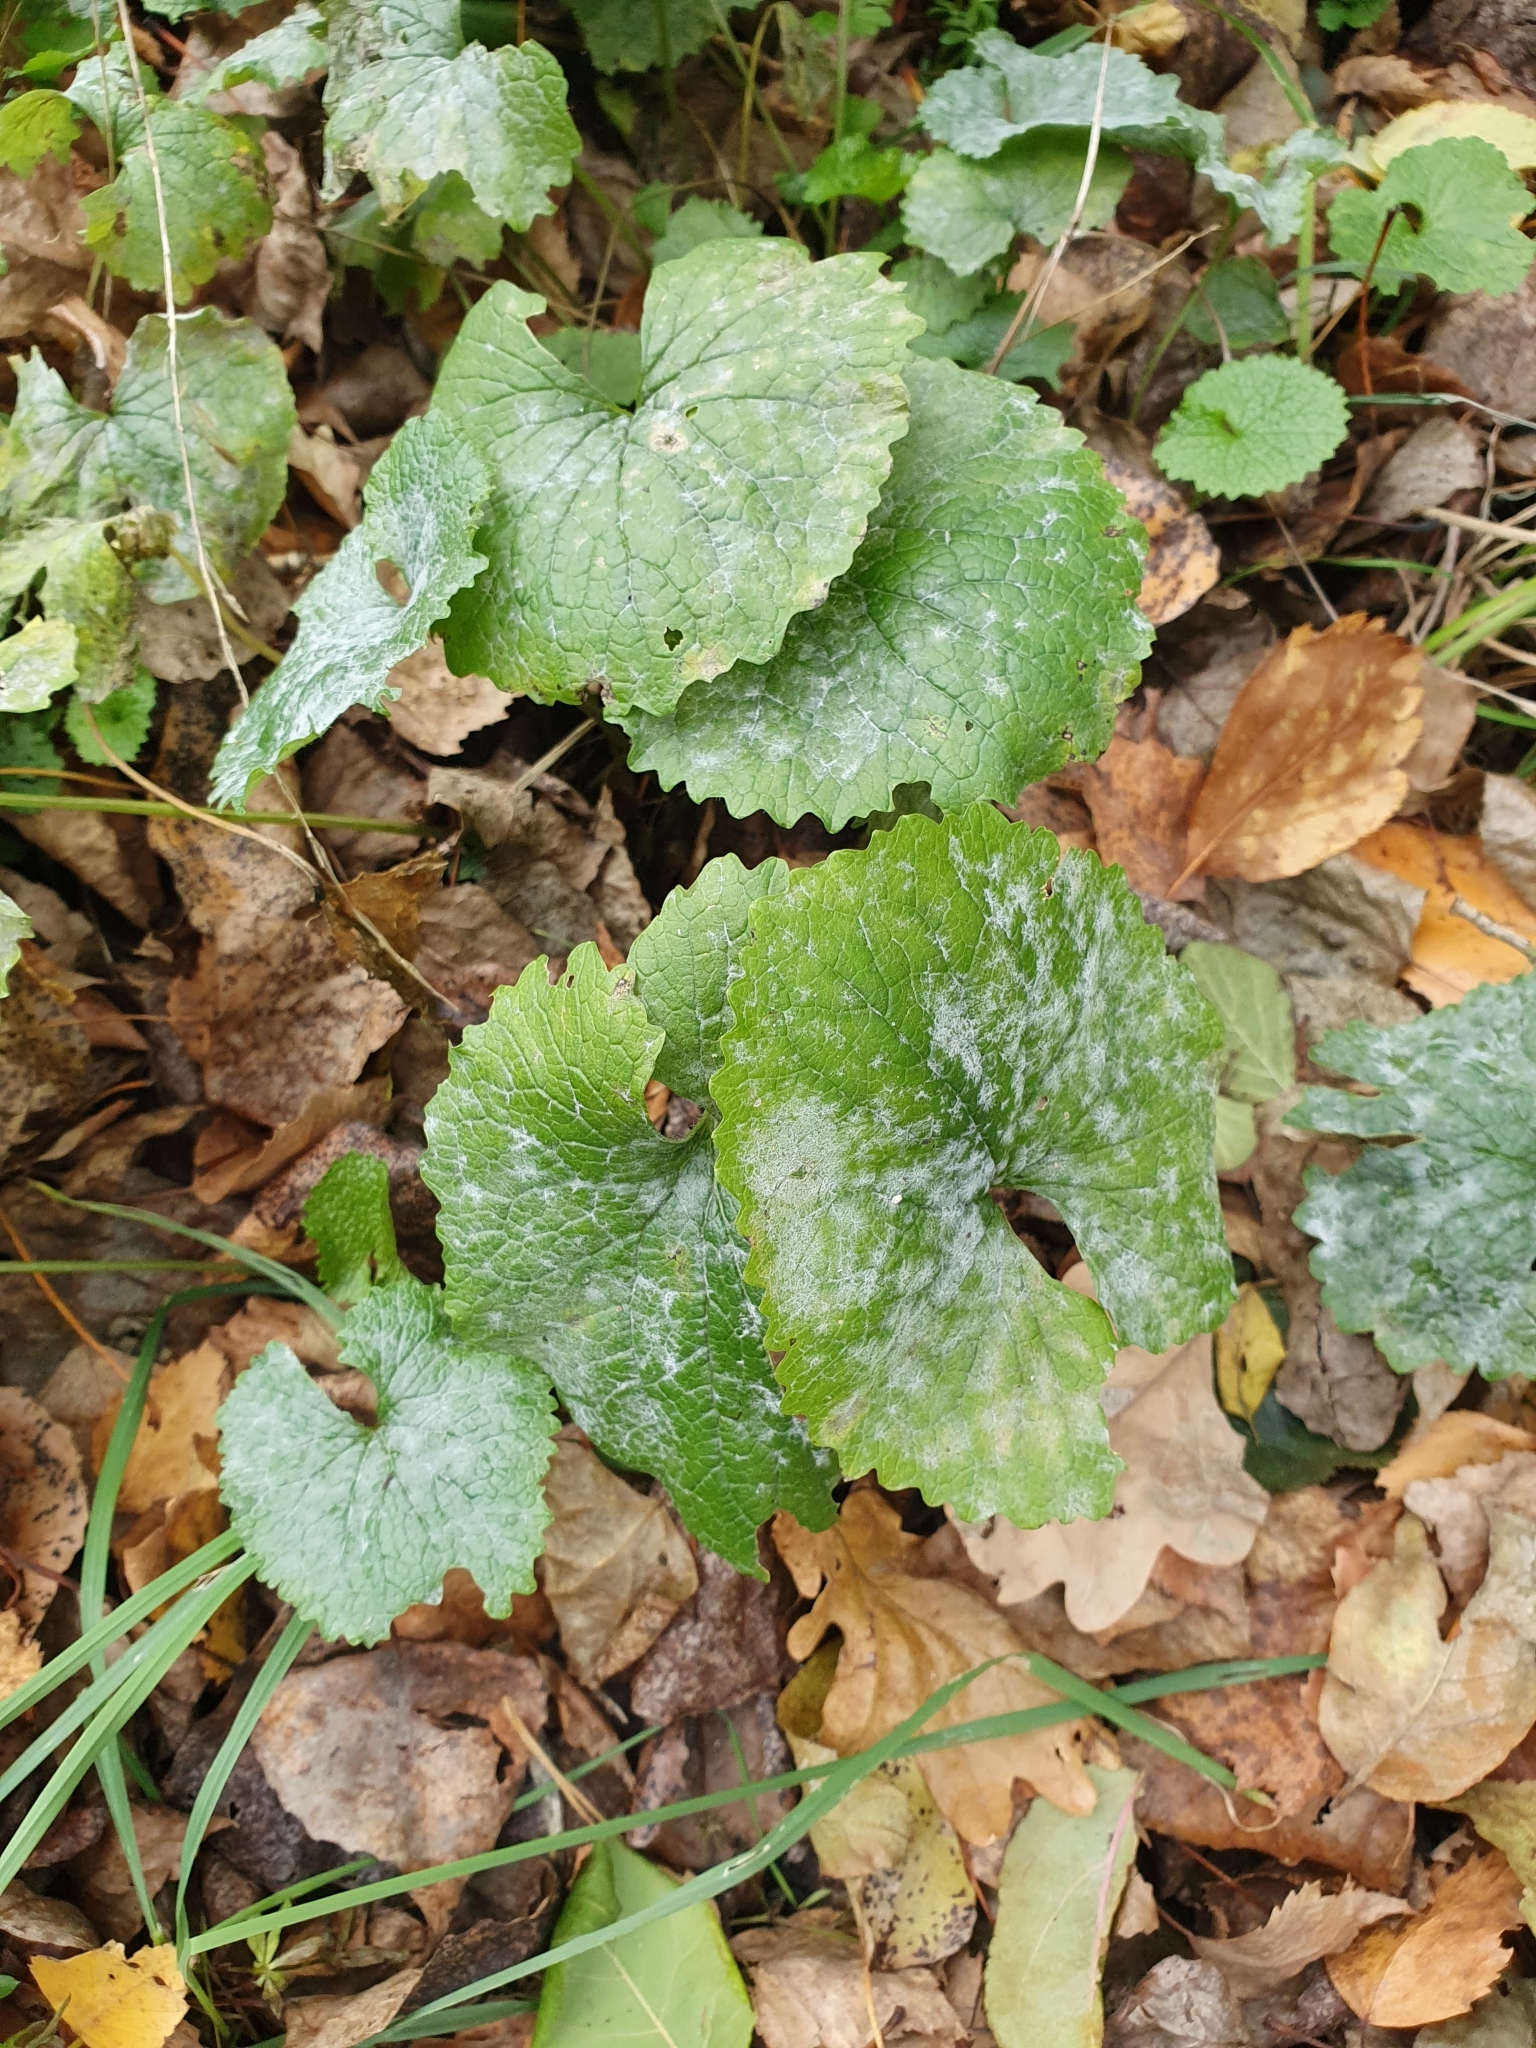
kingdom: Fungi
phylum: Ascomycota
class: Leotiomycetes
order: Helotiales
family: Erysiphaceae
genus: Erysiphe
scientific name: Erysiphe cruciferarum
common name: Brassica powdery mildew
